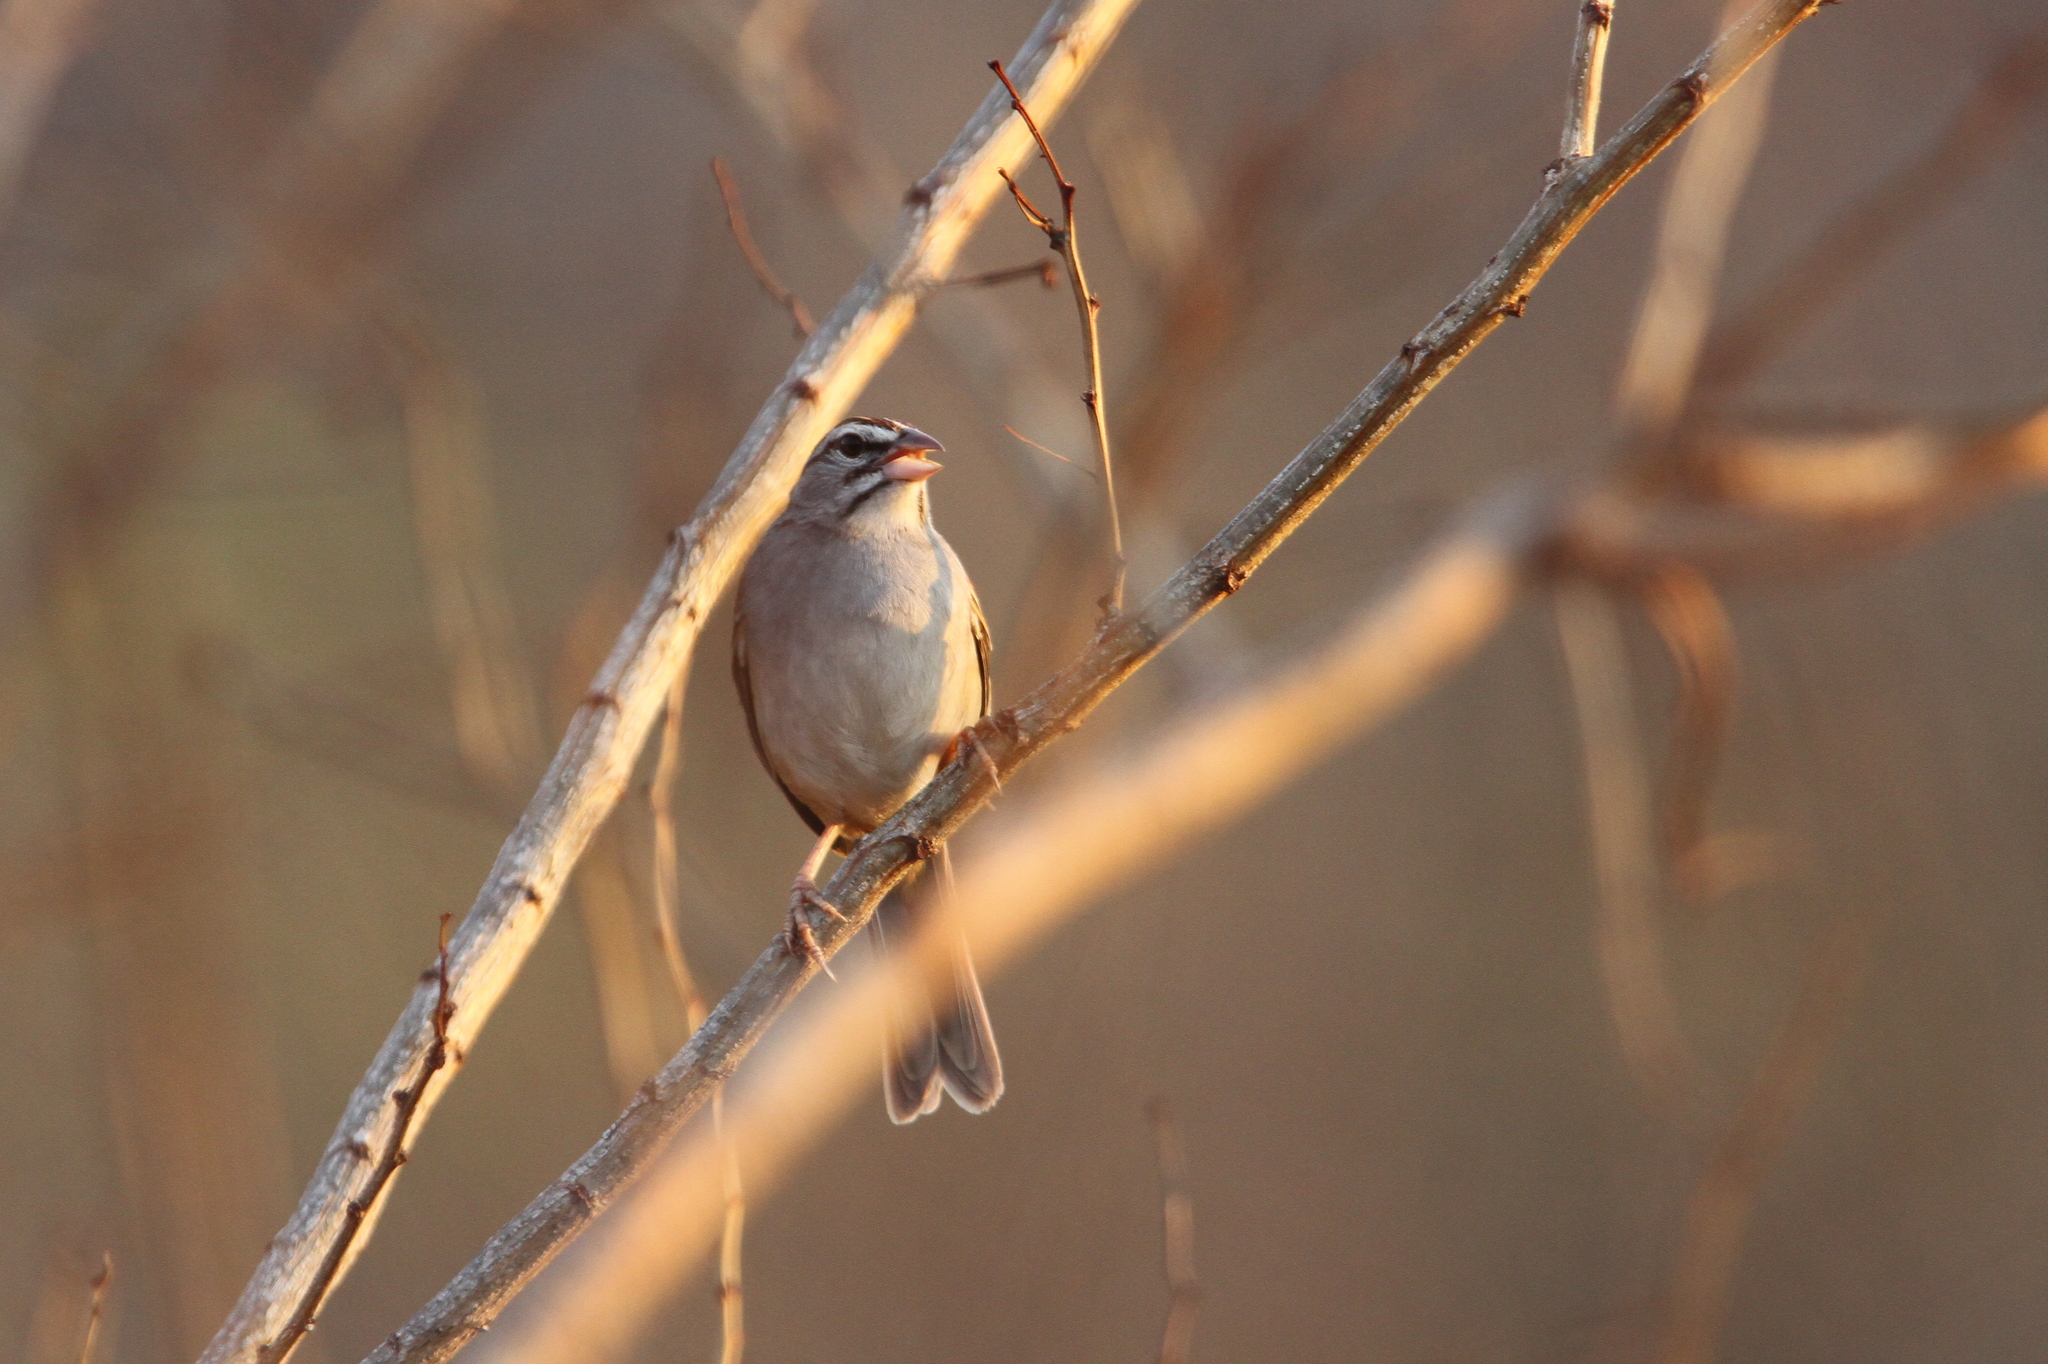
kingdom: Animalia
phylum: Chordata
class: Aves
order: Passeriformes
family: Passerellidae
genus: Peucaea
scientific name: Peucaea sumichrasti
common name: Cinnamon-tailed sparrow
